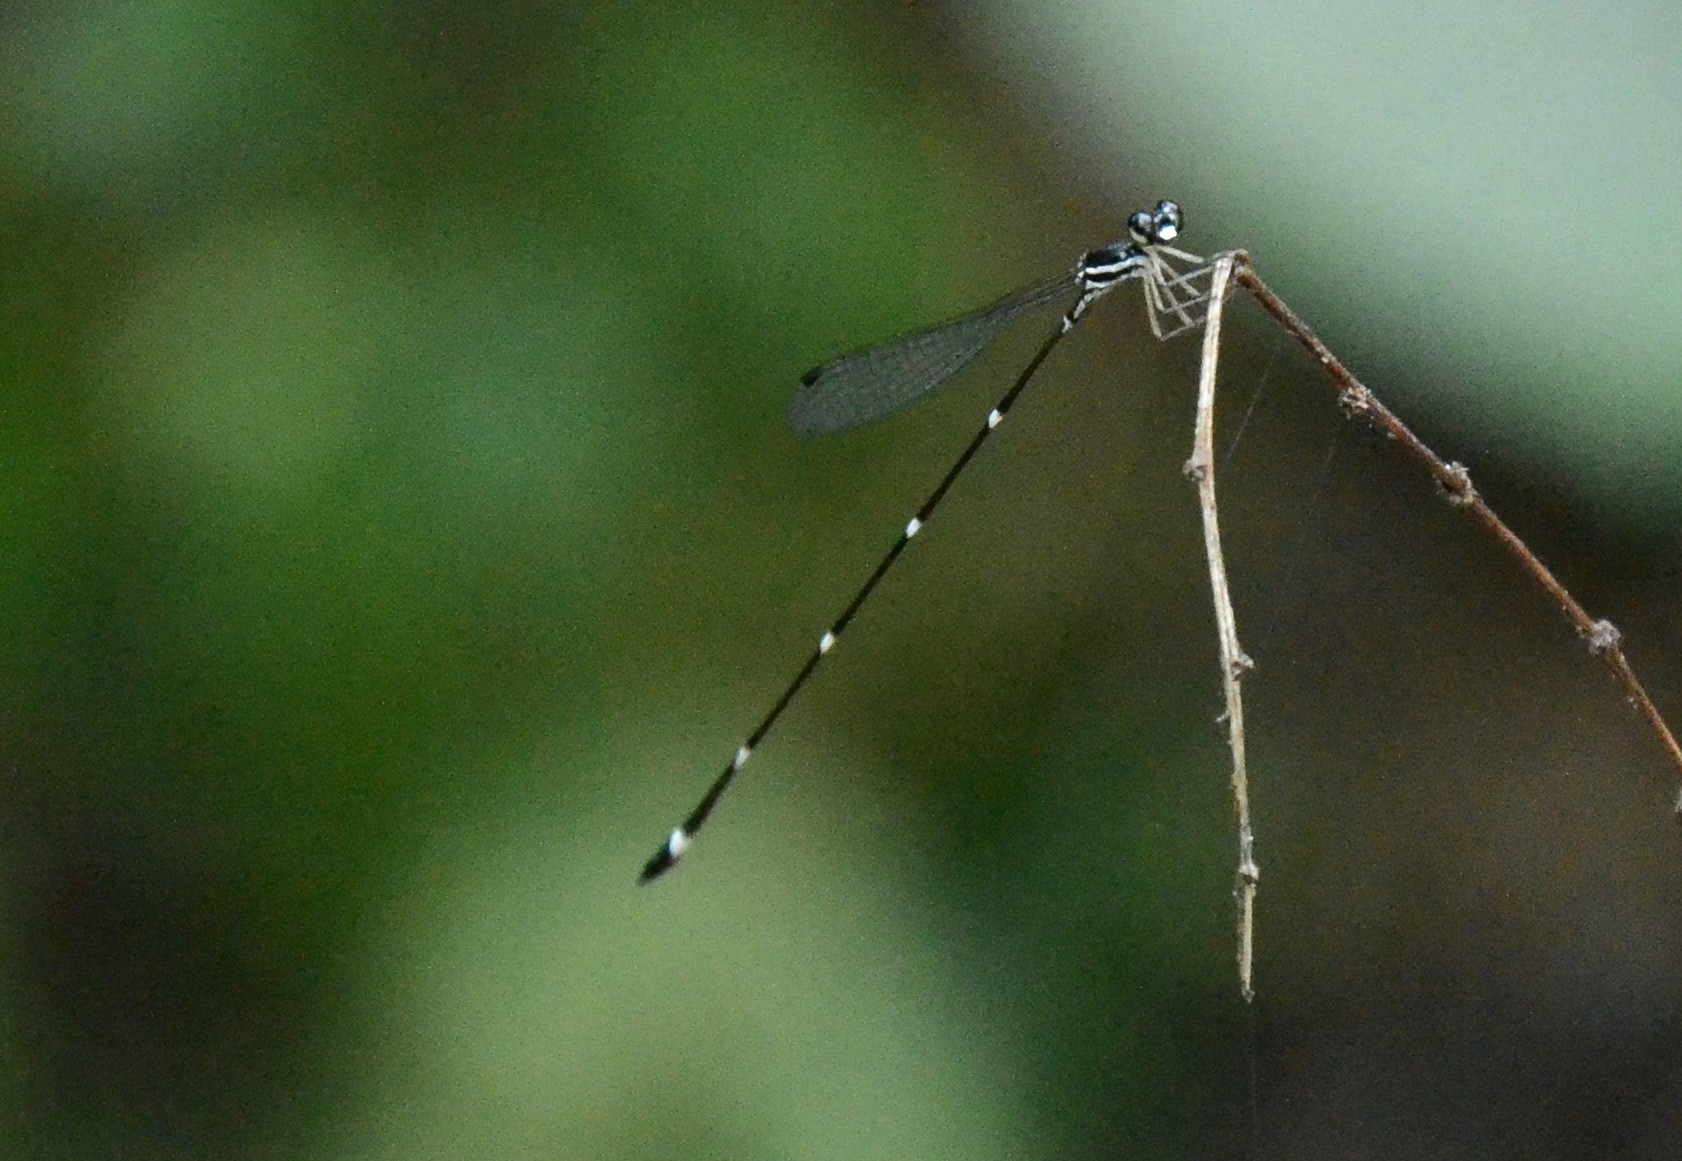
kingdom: Animalia
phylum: Arthropoda
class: Insecta
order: Odonata
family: Platystictidae
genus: Protosticta
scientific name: Protosticta gravelyi
